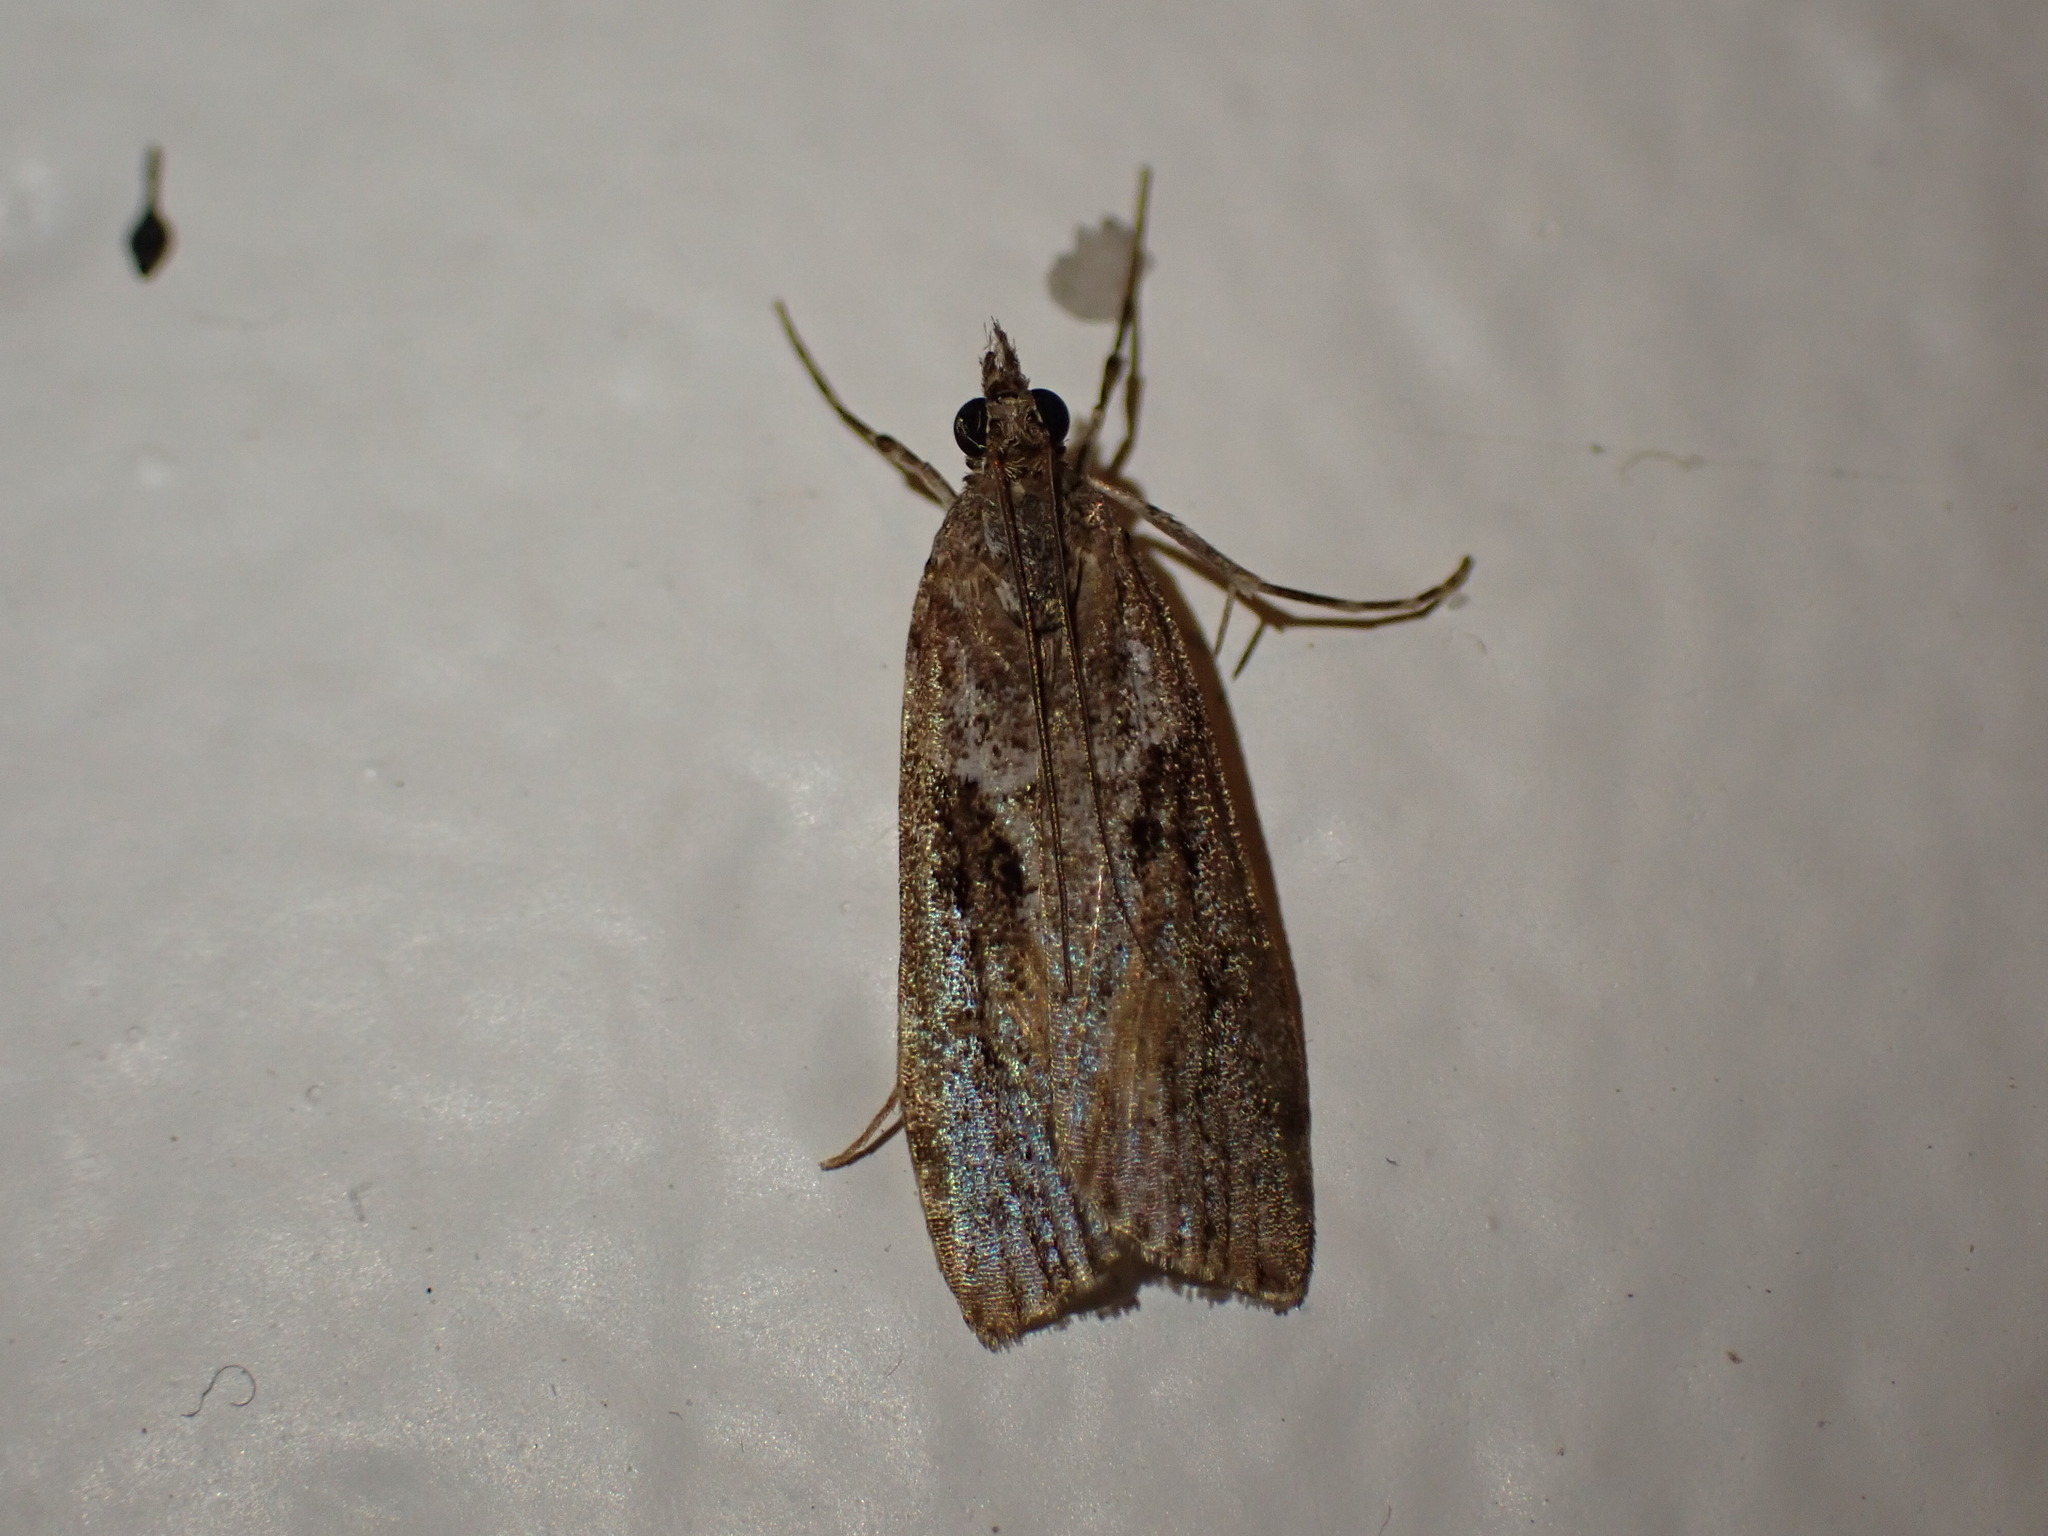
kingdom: Animalia
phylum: Arthropoda
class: Insecta
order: Lepidoptera
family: Crambidae
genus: Eudonia
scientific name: Eudonia submarginalis
